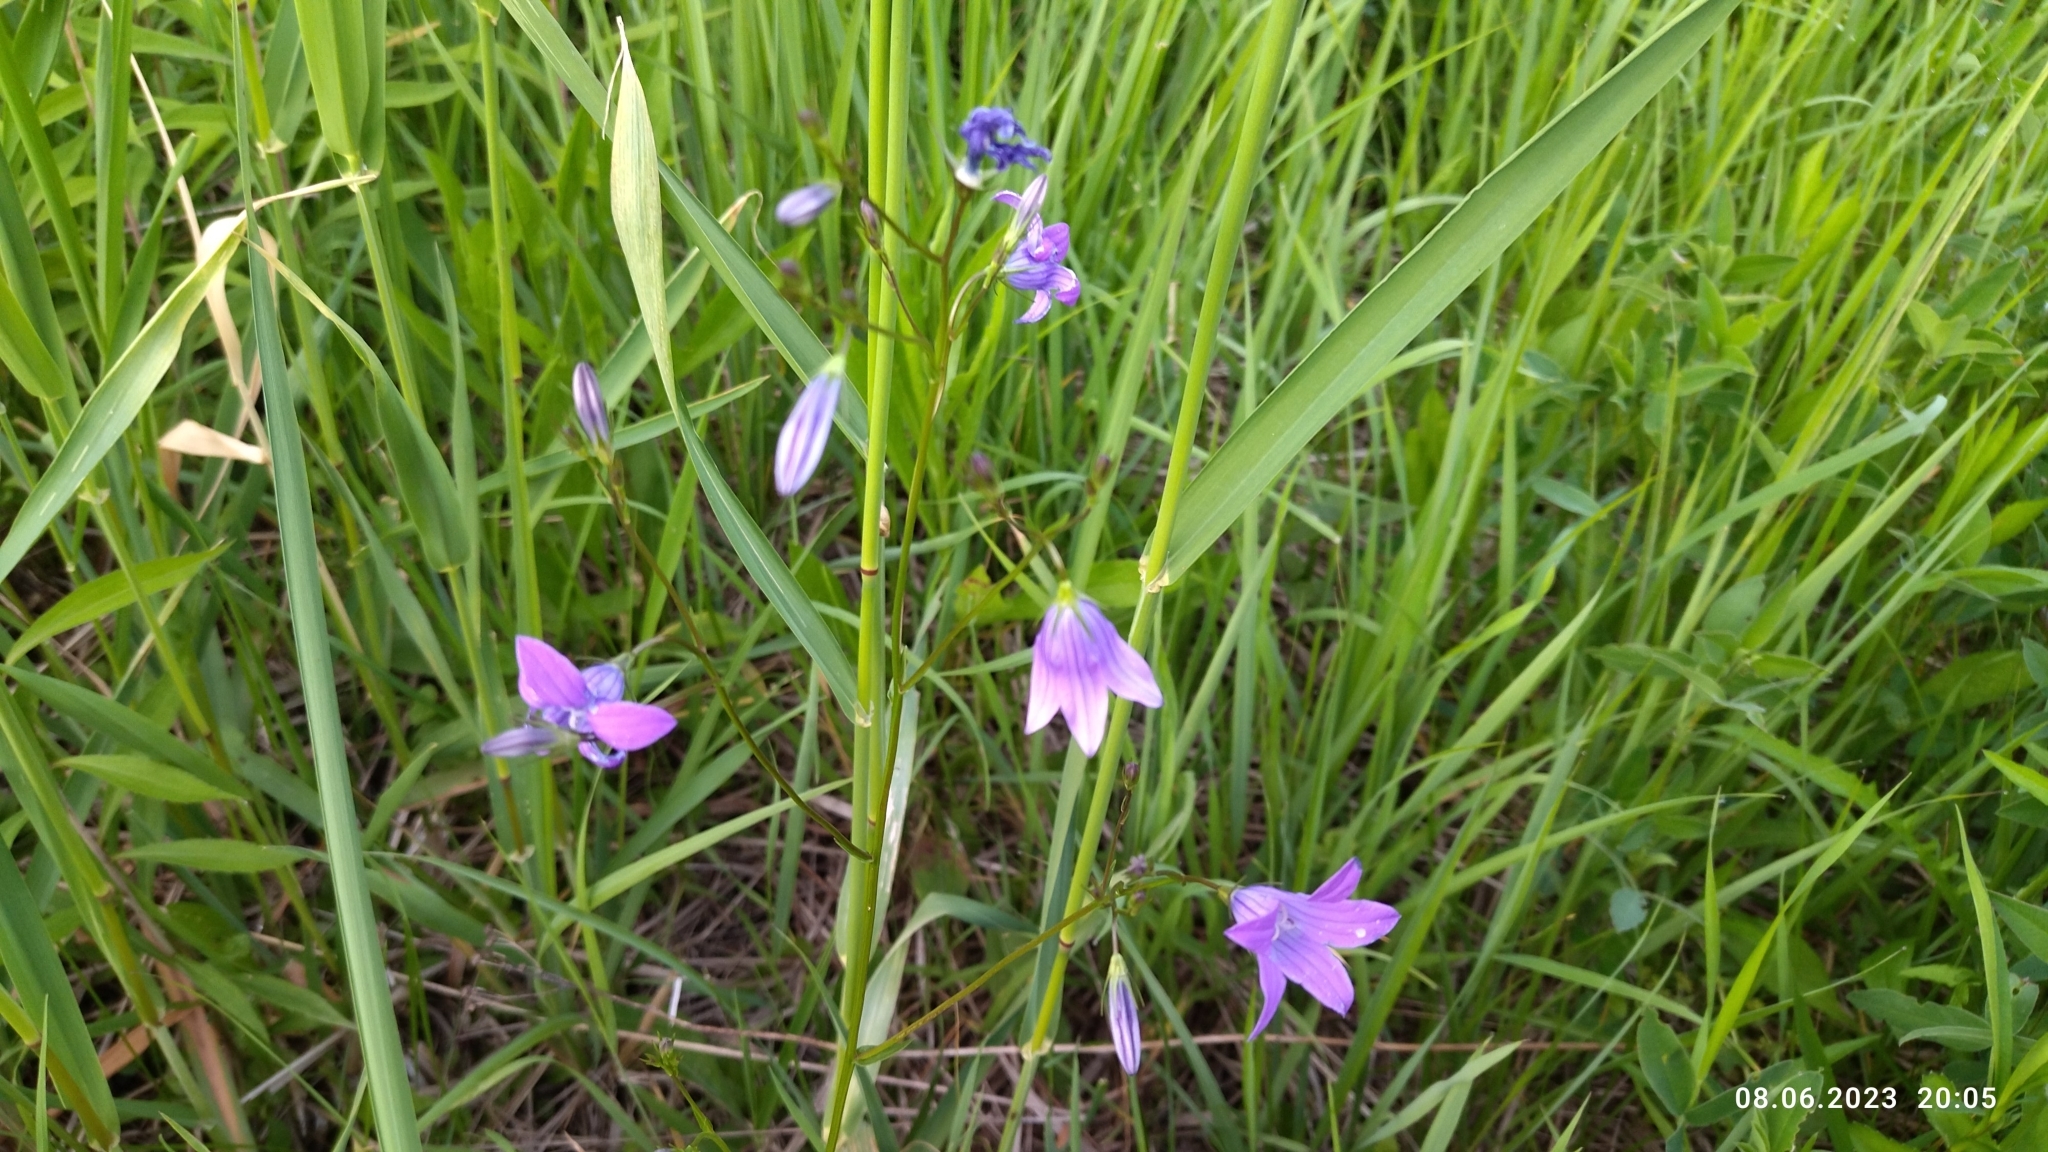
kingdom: Plantae
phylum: Tracheophyta
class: Magnoliopsida
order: Asterales
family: Campanulaceae
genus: Campanula
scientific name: Campanula patula
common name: Spreading bellflower
